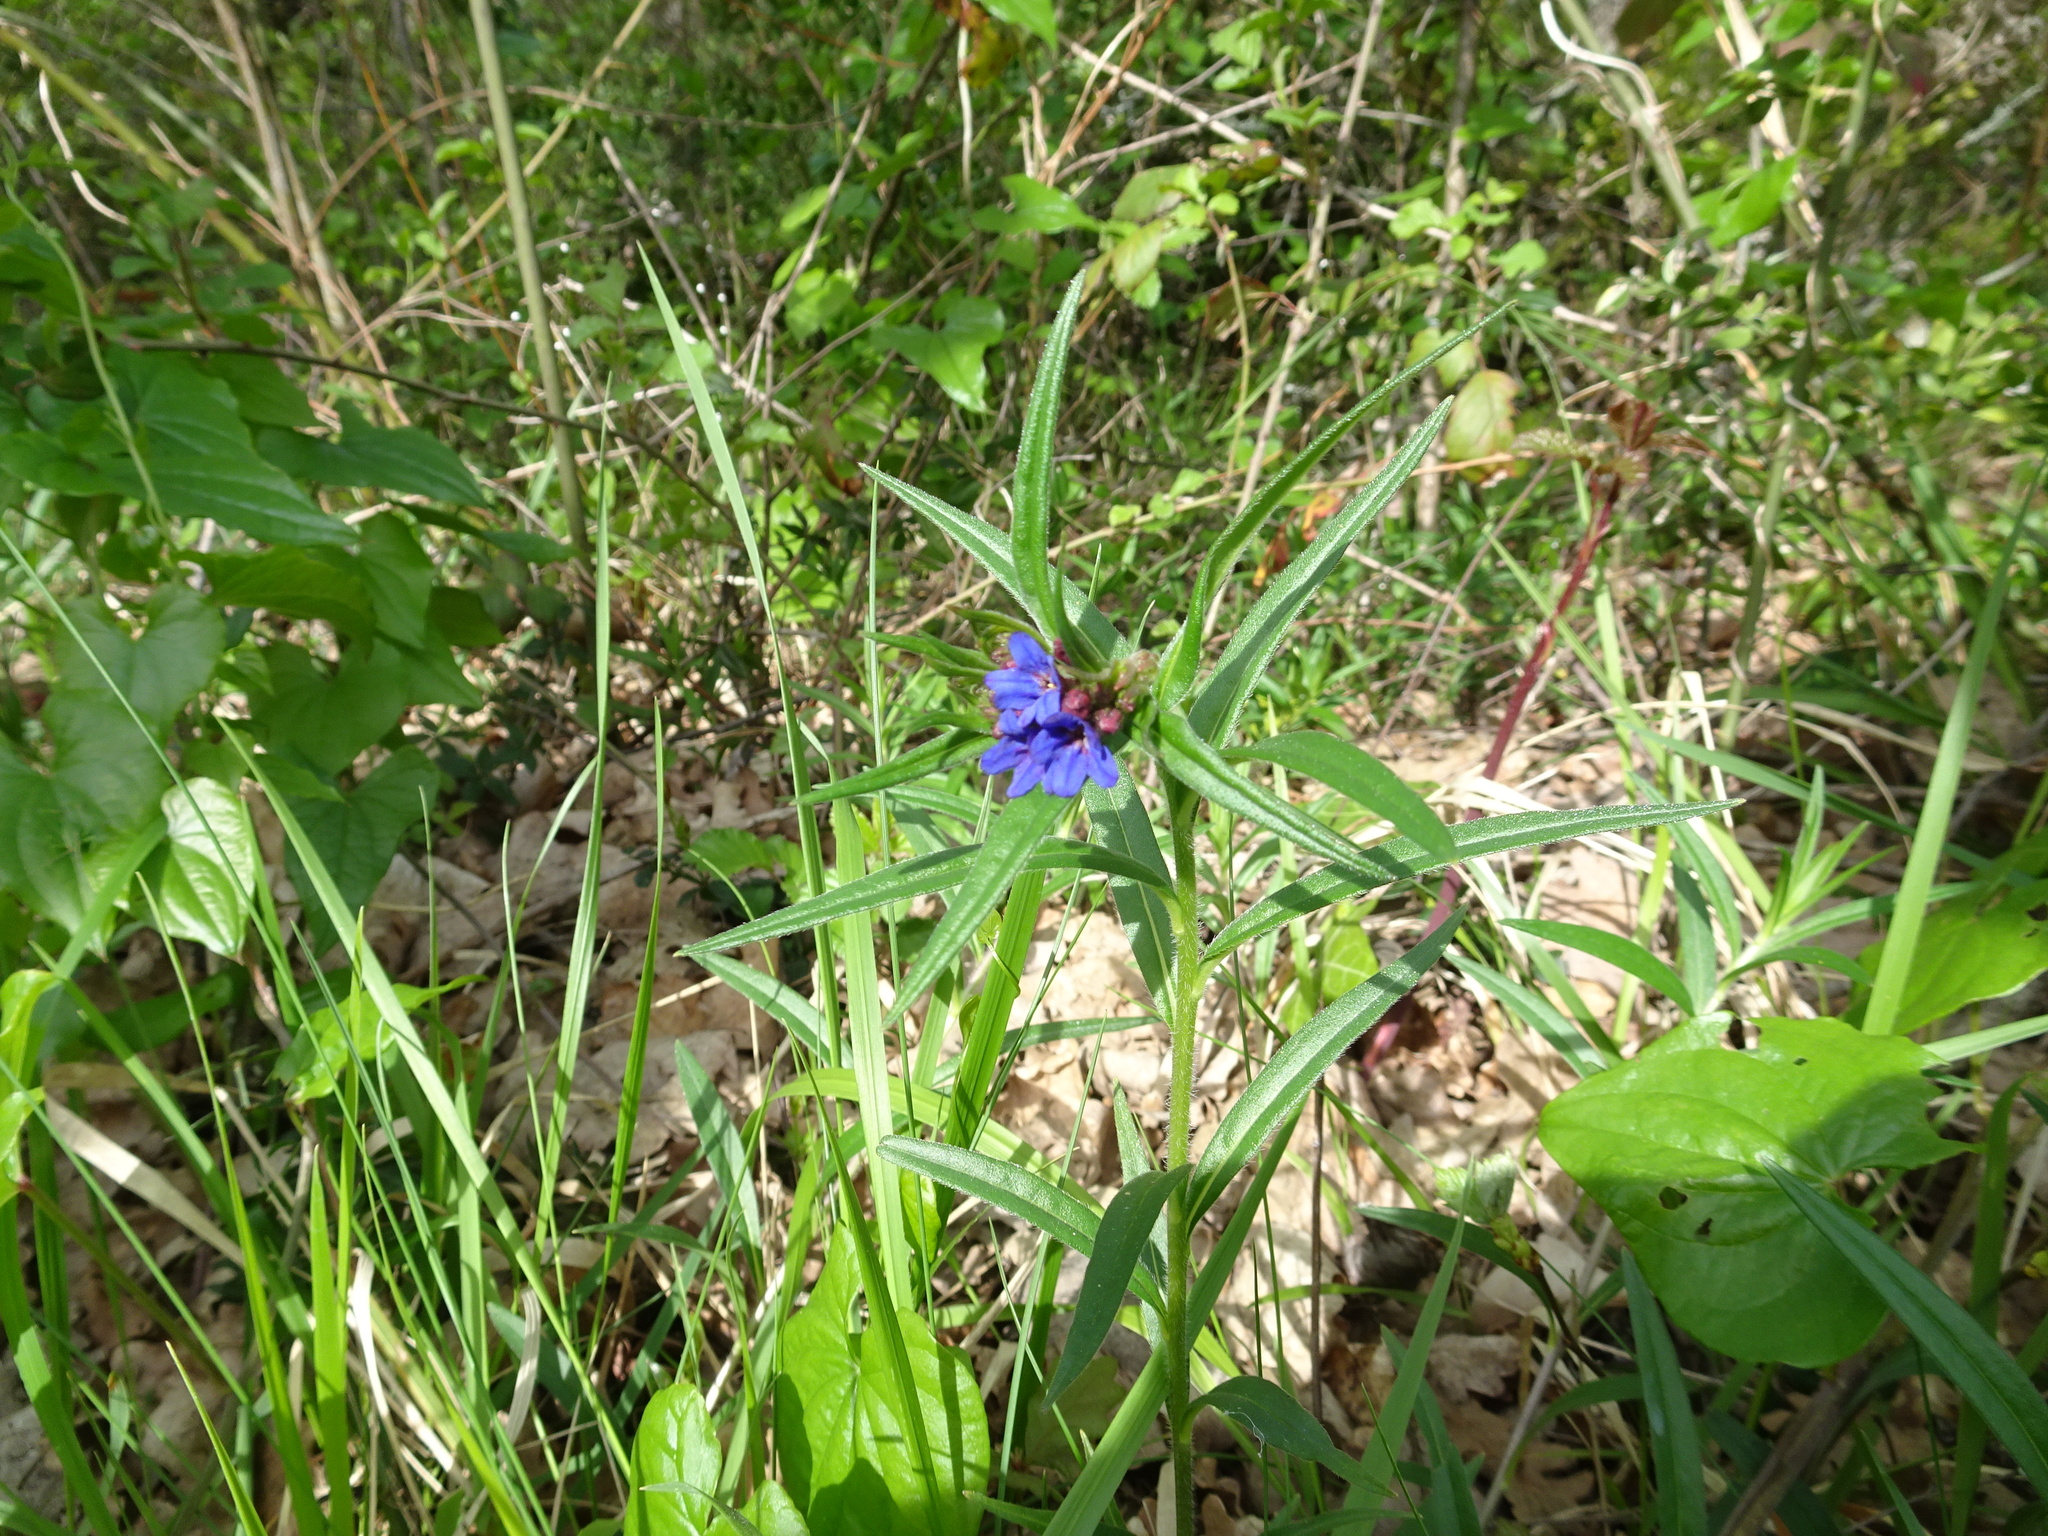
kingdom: Plantae
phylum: Tracheophyta
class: Magnoliopsida
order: Boraginales
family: Boraginaceae
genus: Aegonychon
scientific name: Aegonychon purpurocaeruleum
